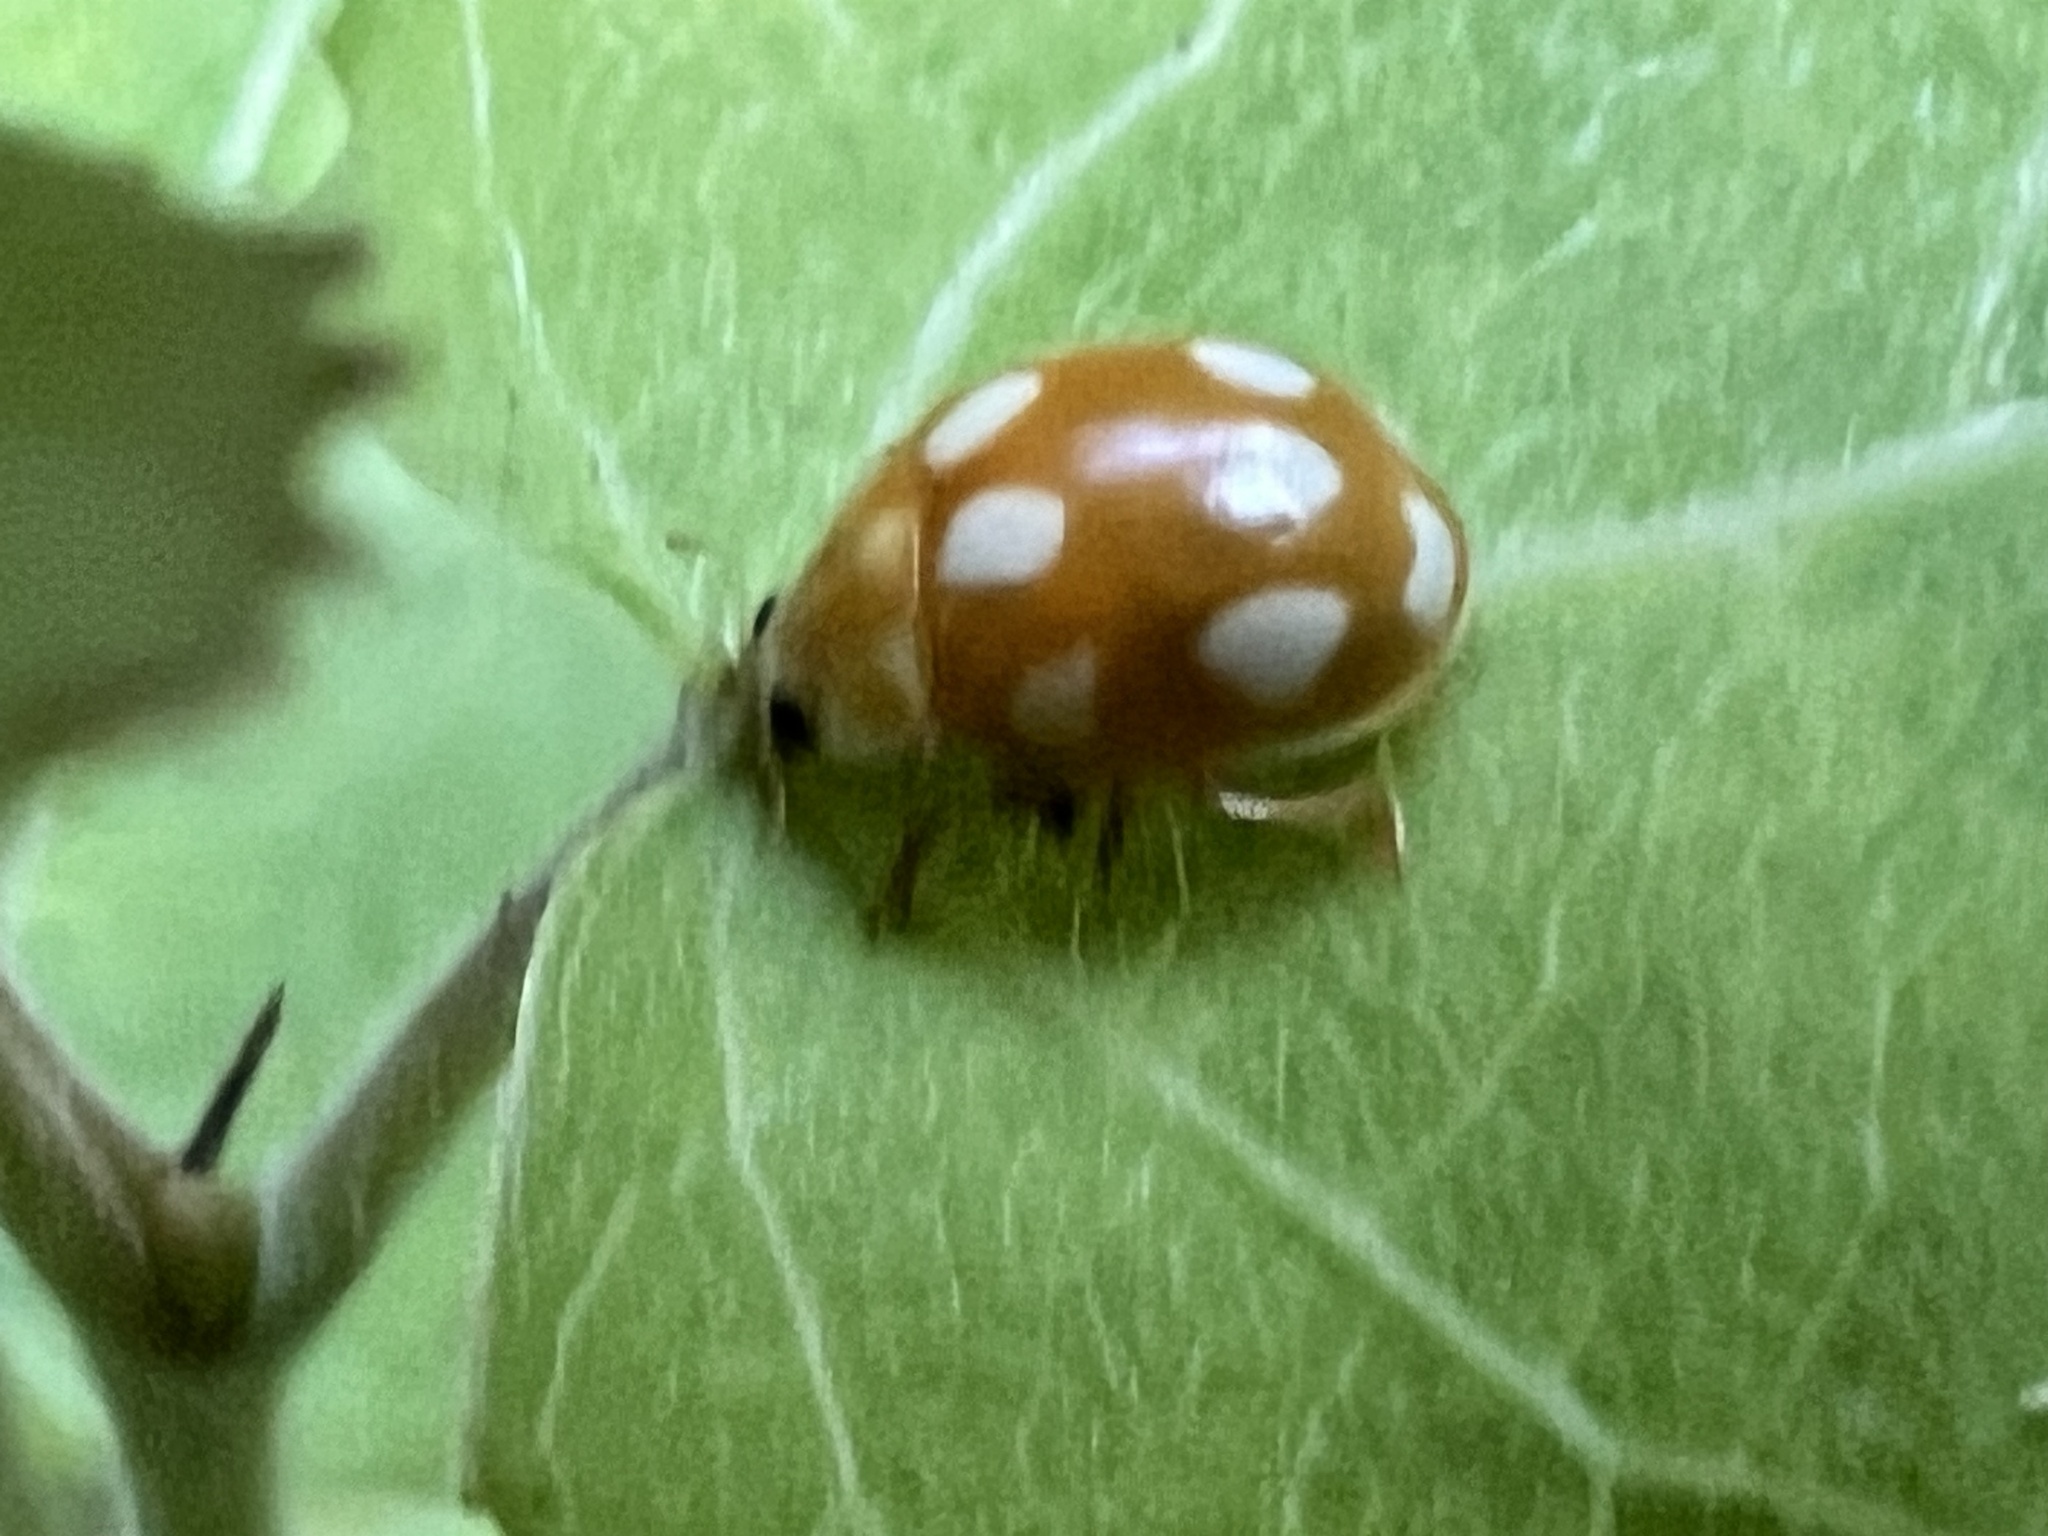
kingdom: Animalia
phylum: Arthropoda
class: Insecta
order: Coleoptera
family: Coccinellidae
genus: Calvia
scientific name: Calvia decemguttata
